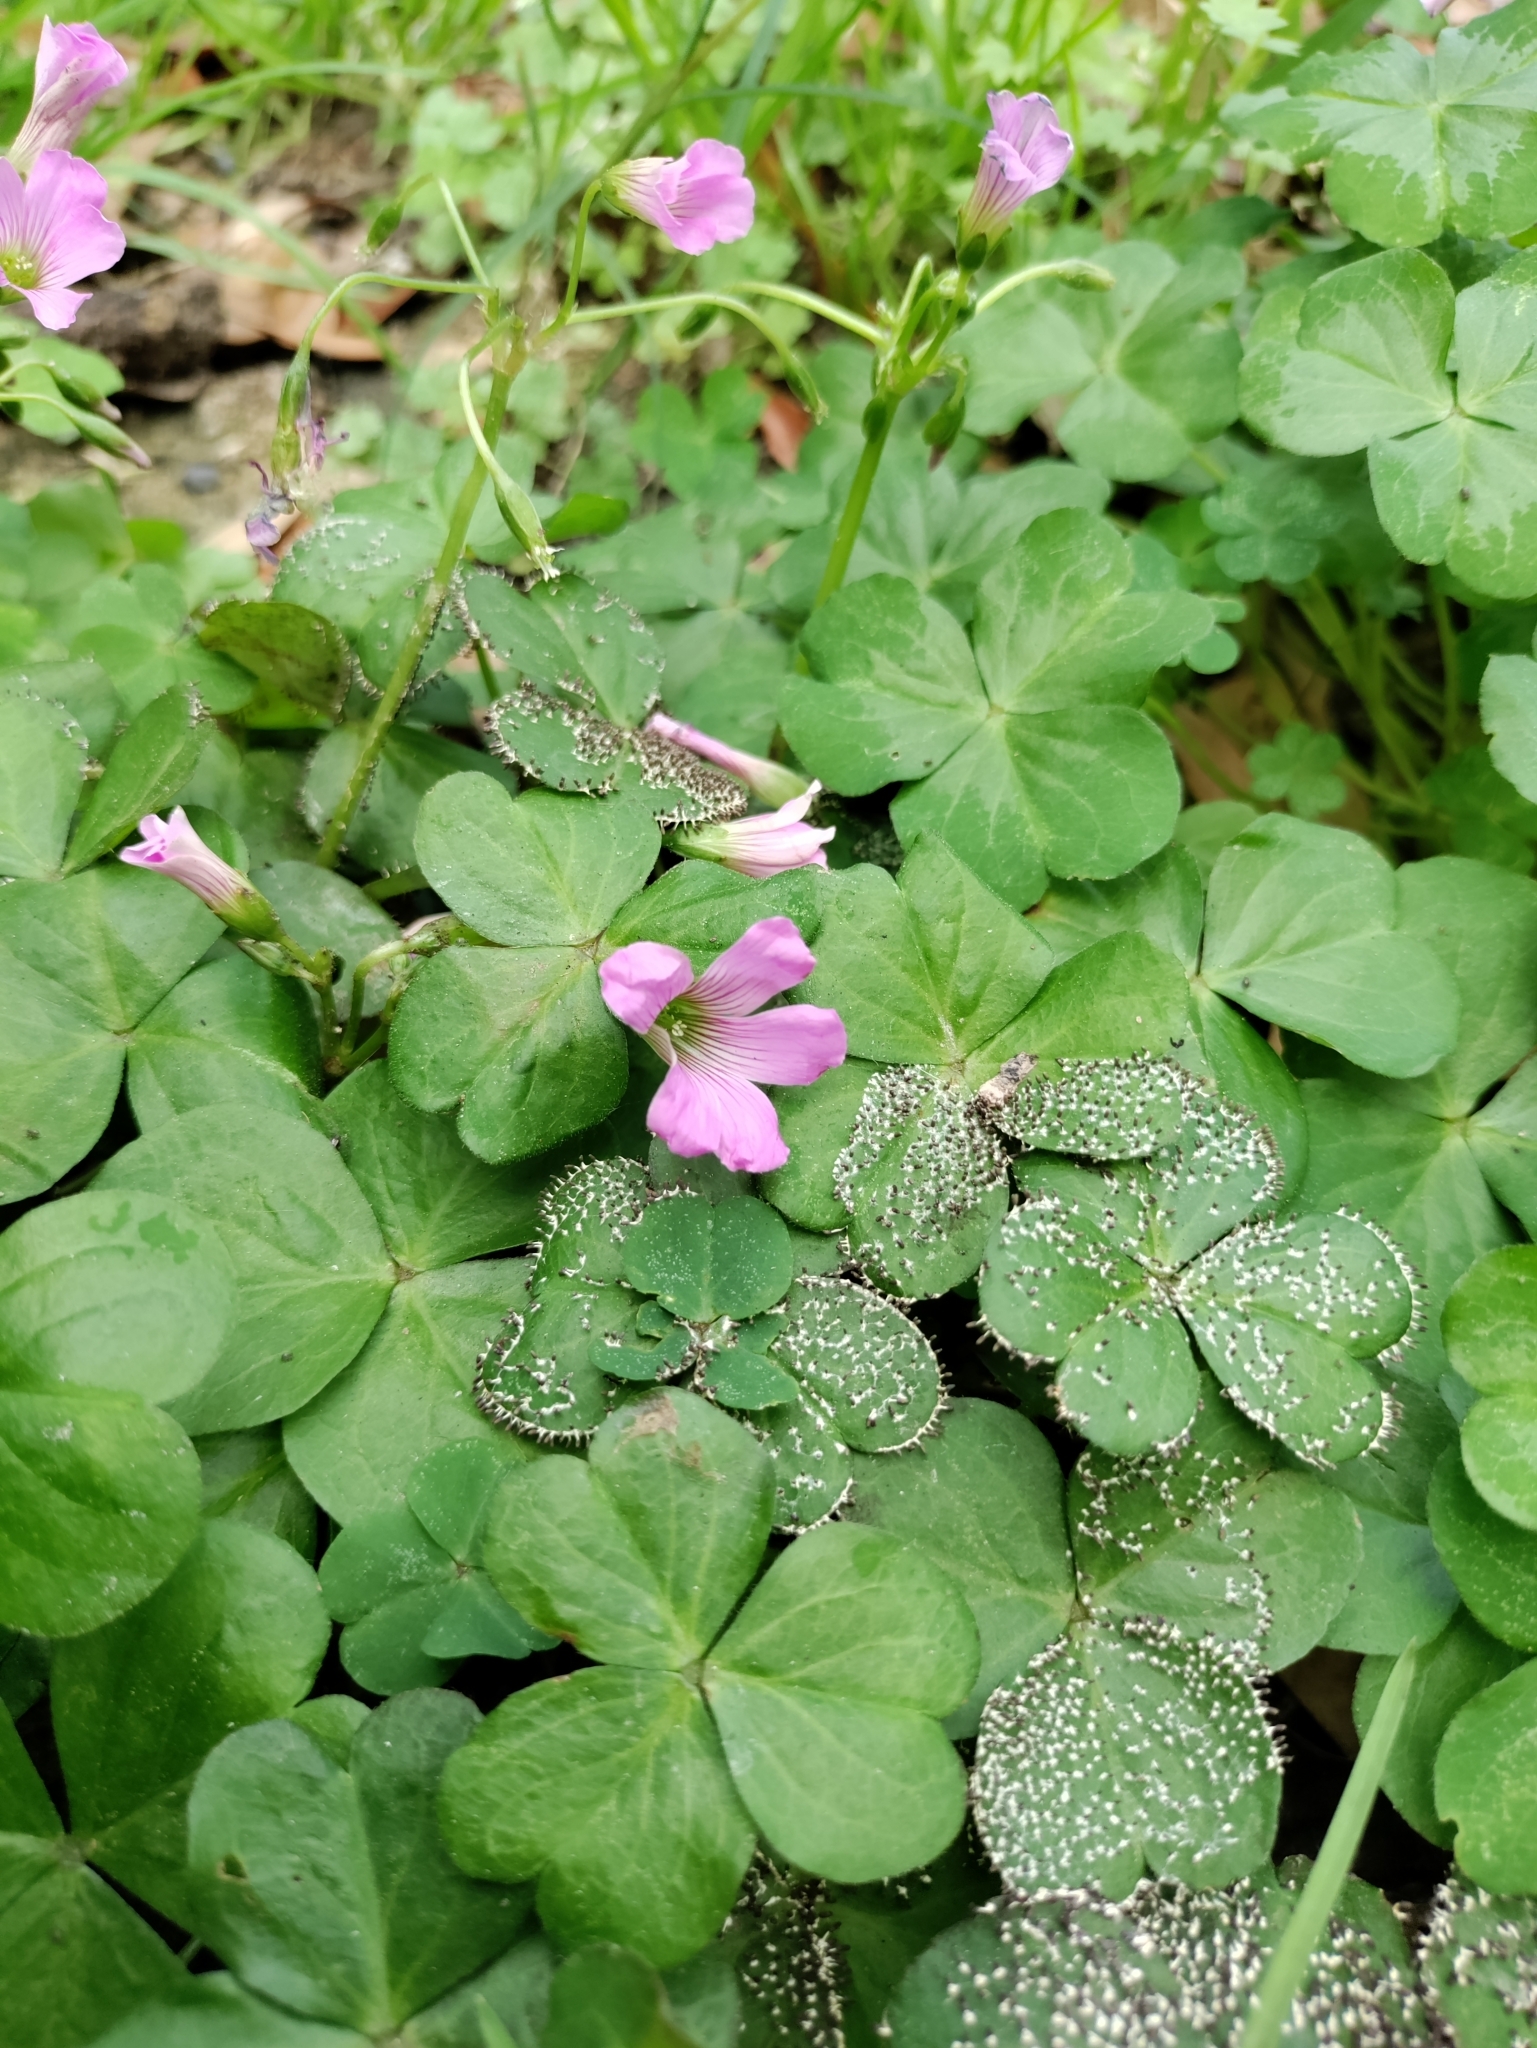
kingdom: Plantae
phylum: Tracheophyta
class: Magnoliopsida
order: Oxalidales
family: Oxalidaceae
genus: Oxalis
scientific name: Oxalis debilis
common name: Large-flowered pink-sorrel
